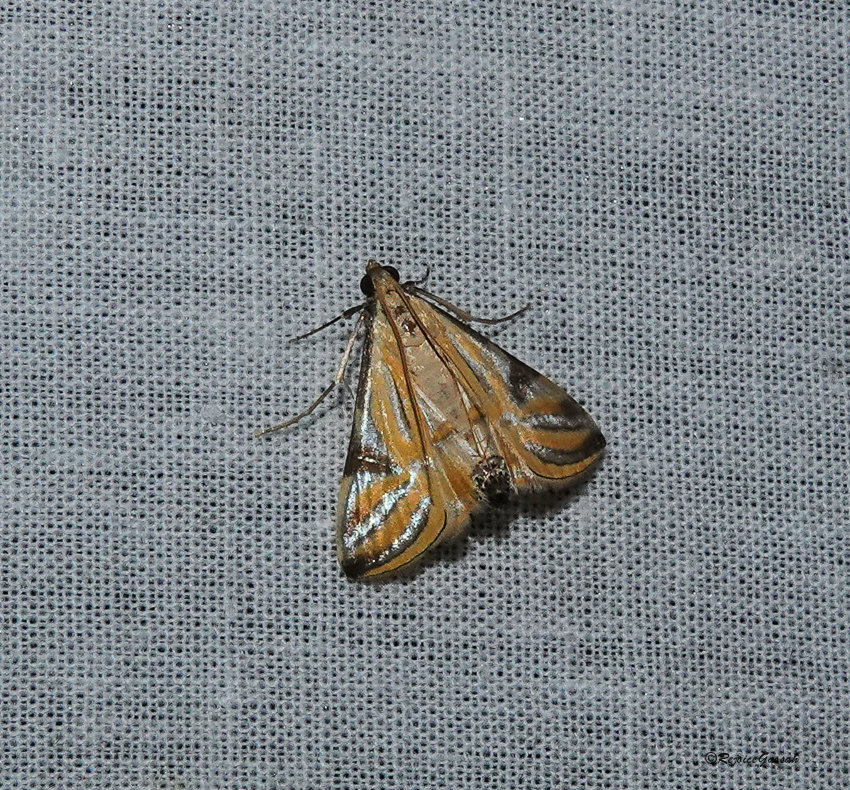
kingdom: Animalia
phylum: Arthropoda
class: Insecta
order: Lepidoptera
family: Crambidae
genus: Talanga
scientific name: Talanga sexpunctalis
